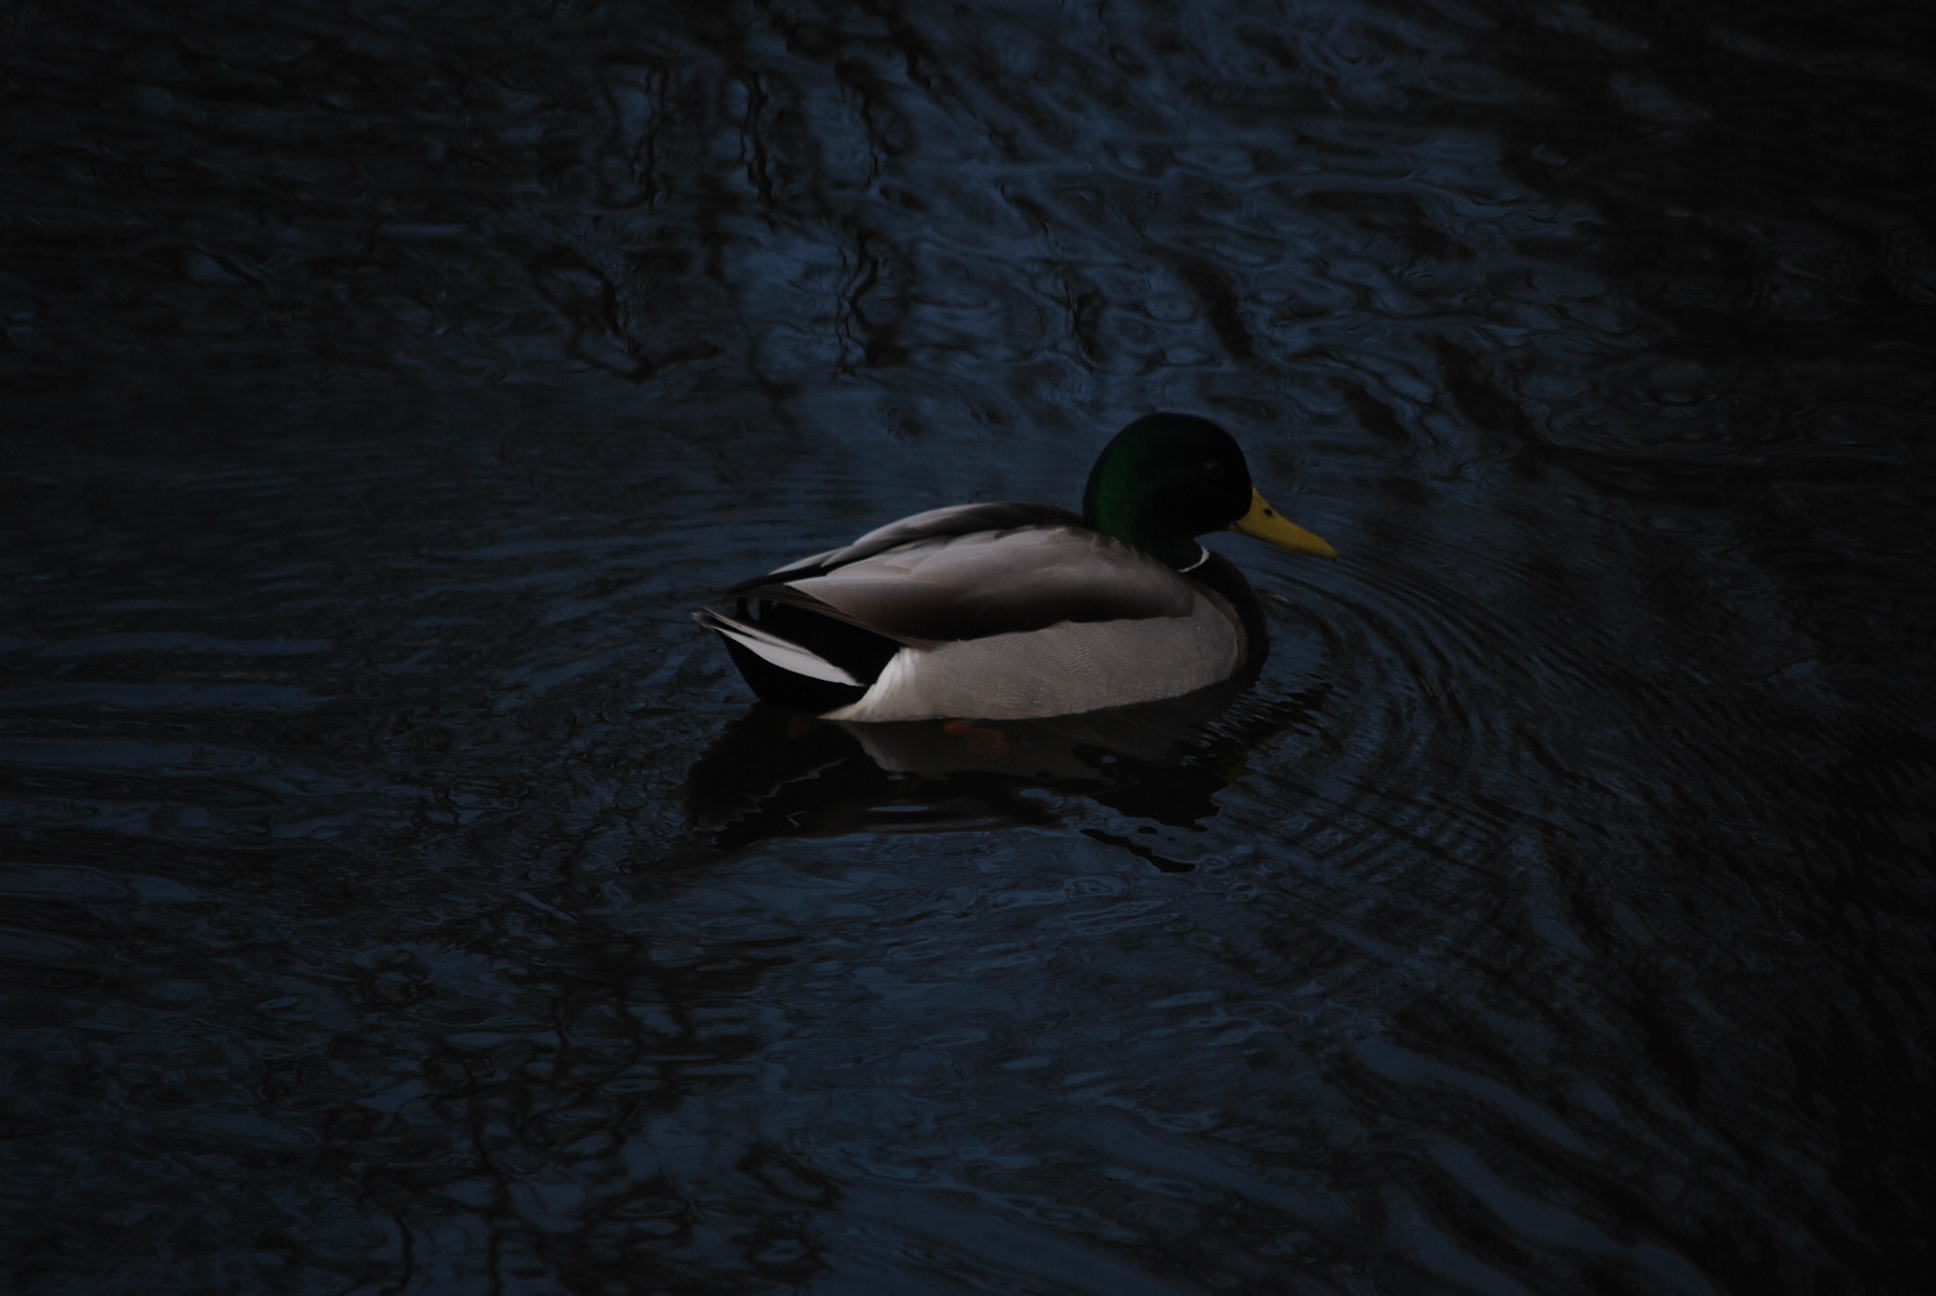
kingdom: Animalia
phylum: Chordata
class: Aves
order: Anseriformes
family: Anatidae
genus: Anas
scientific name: Anas platyrhynchos
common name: Mallard
